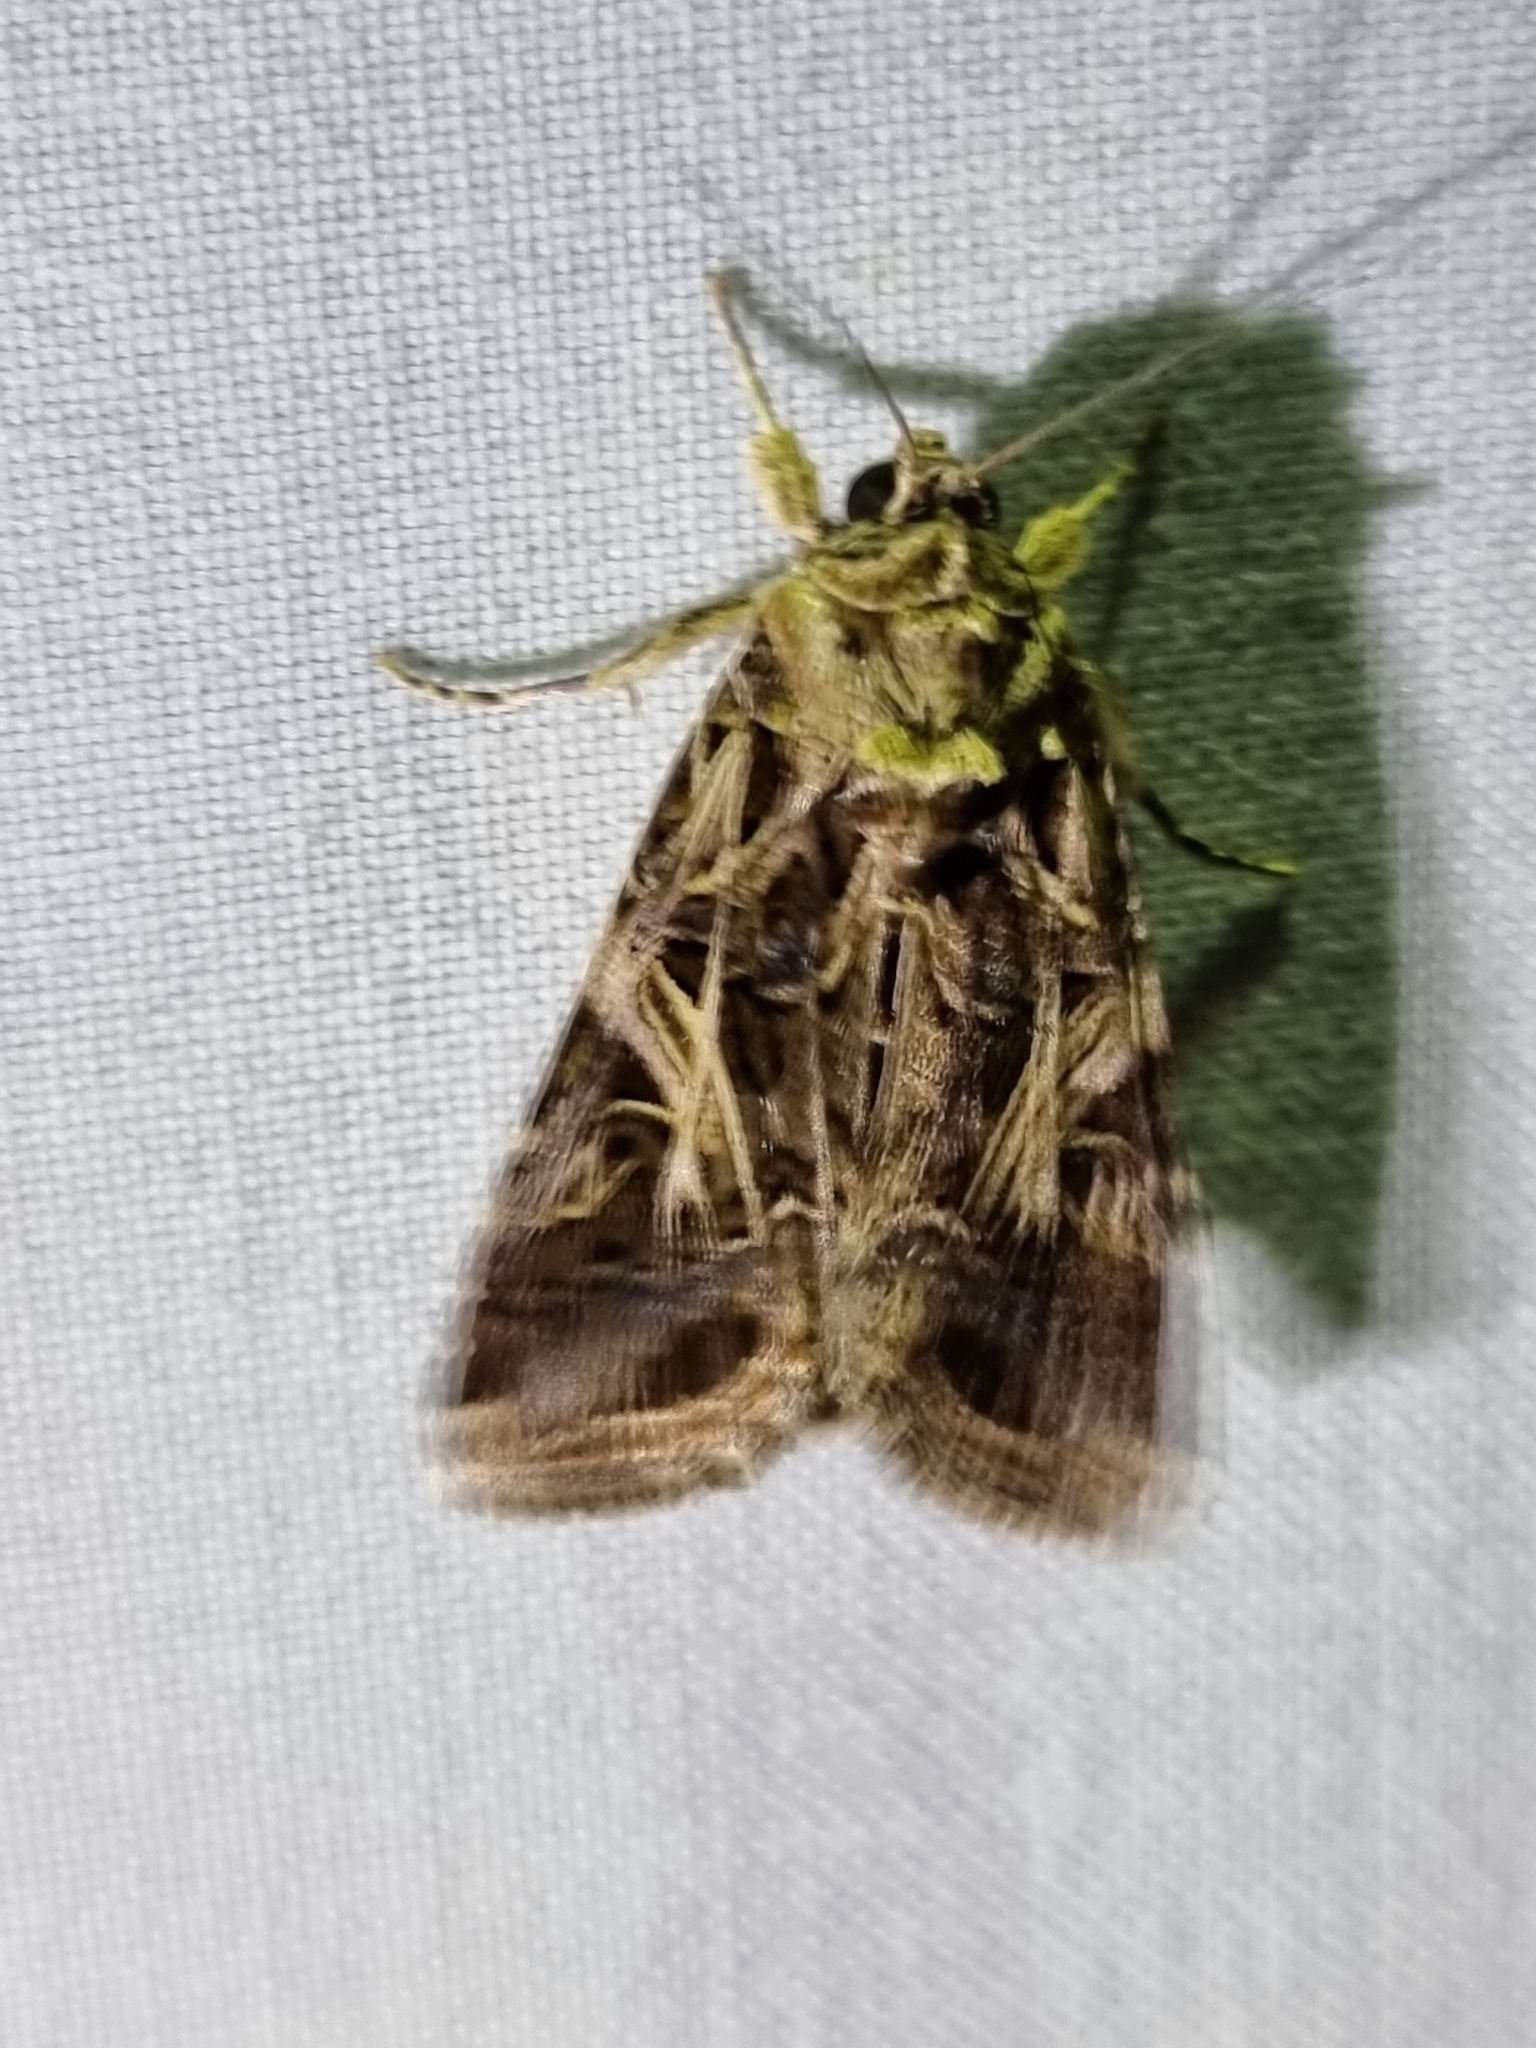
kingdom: Animalia
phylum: Arthropoda
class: Insecta
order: Lepidoptera
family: Noctuidae
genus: Spodoptera
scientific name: Spodoptera litura
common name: Asian cotton leafworm
